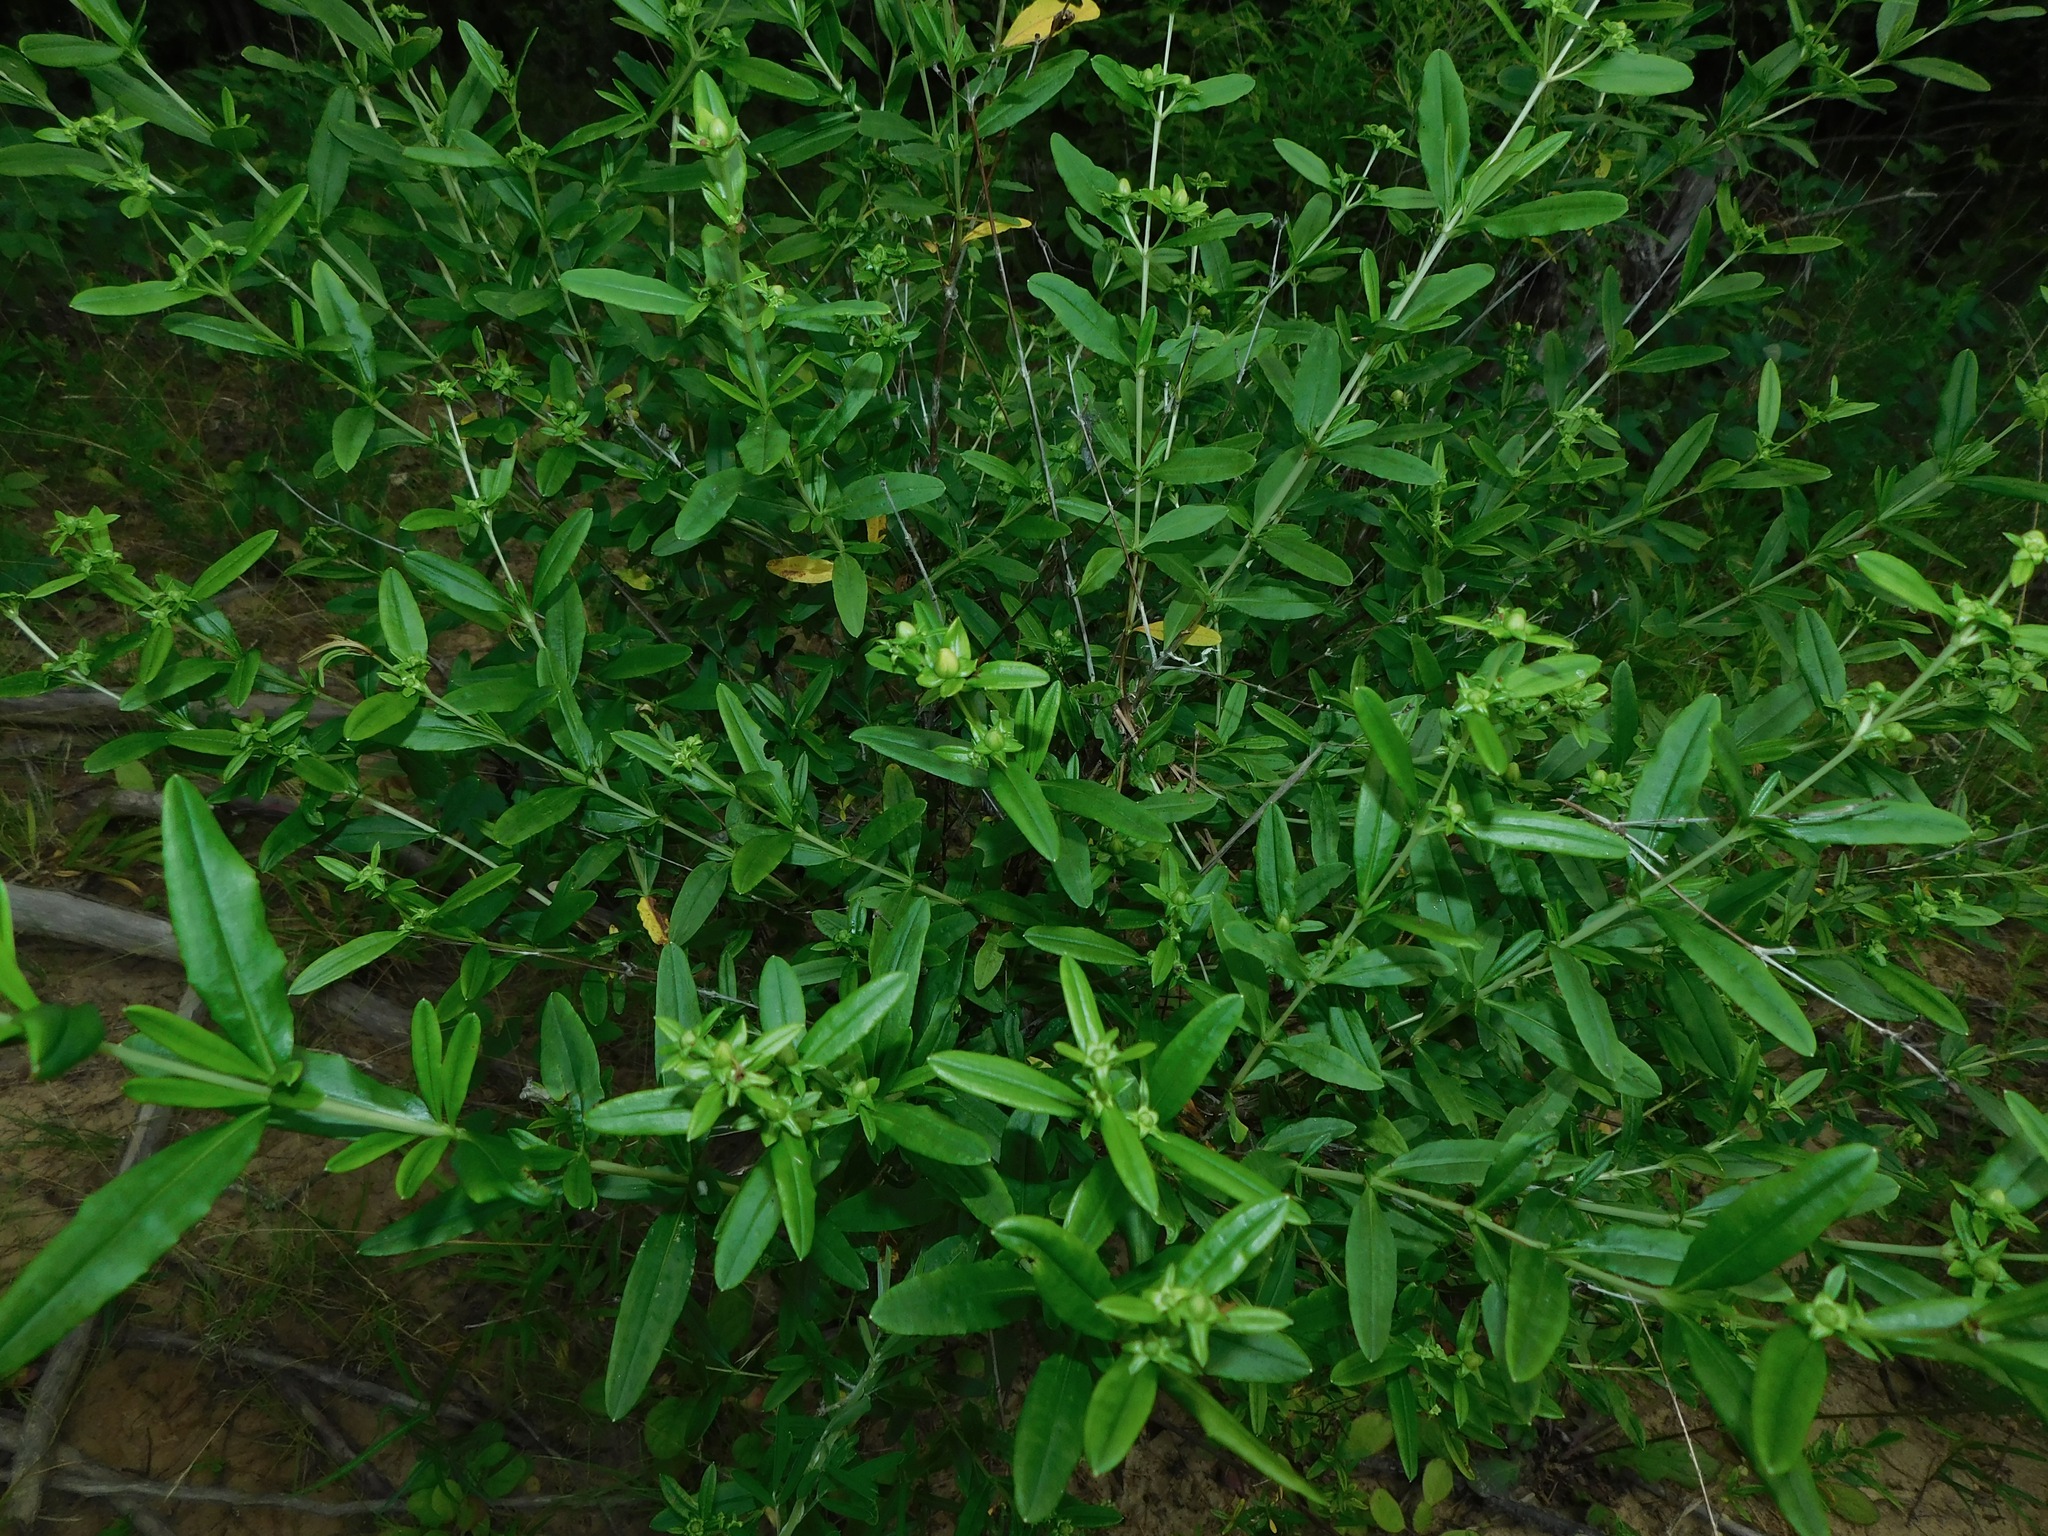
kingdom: Plantae
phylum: Tracheophyta
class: Magnoliopsida
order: Malpighiales
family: Hypericaceae
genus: Hypericum
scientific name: Hypericum prolificum
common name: Shrubby st. john's-wort
